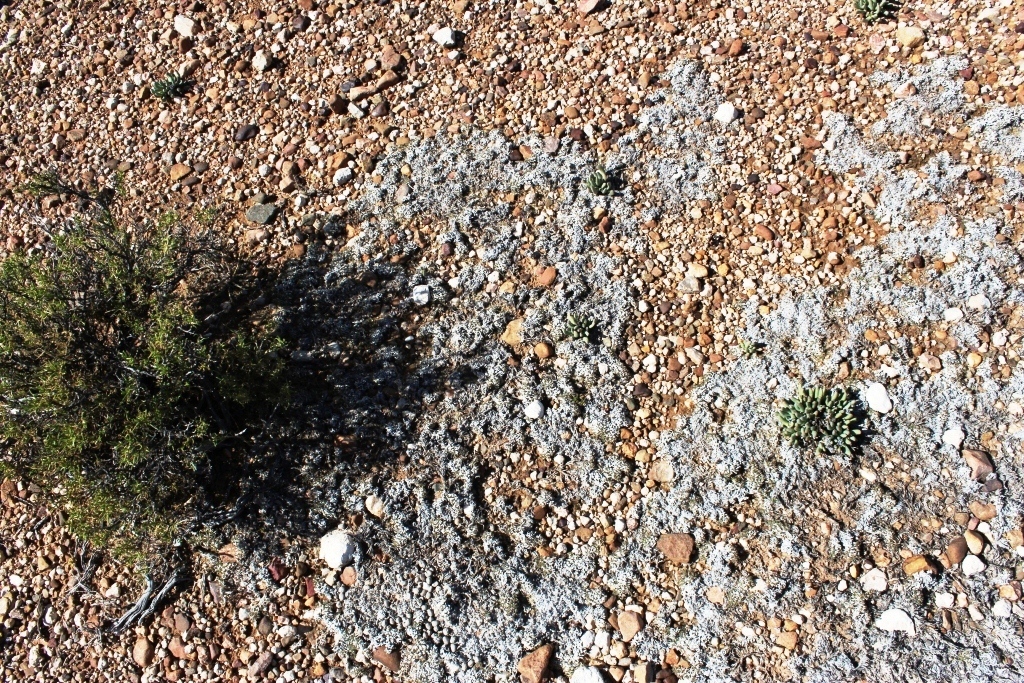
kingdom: Plantae
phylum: Tracheophyta
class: Liliopsida
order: Poales
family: Poaceae
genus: Eragrostis
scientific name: Eragrostis bergiana
